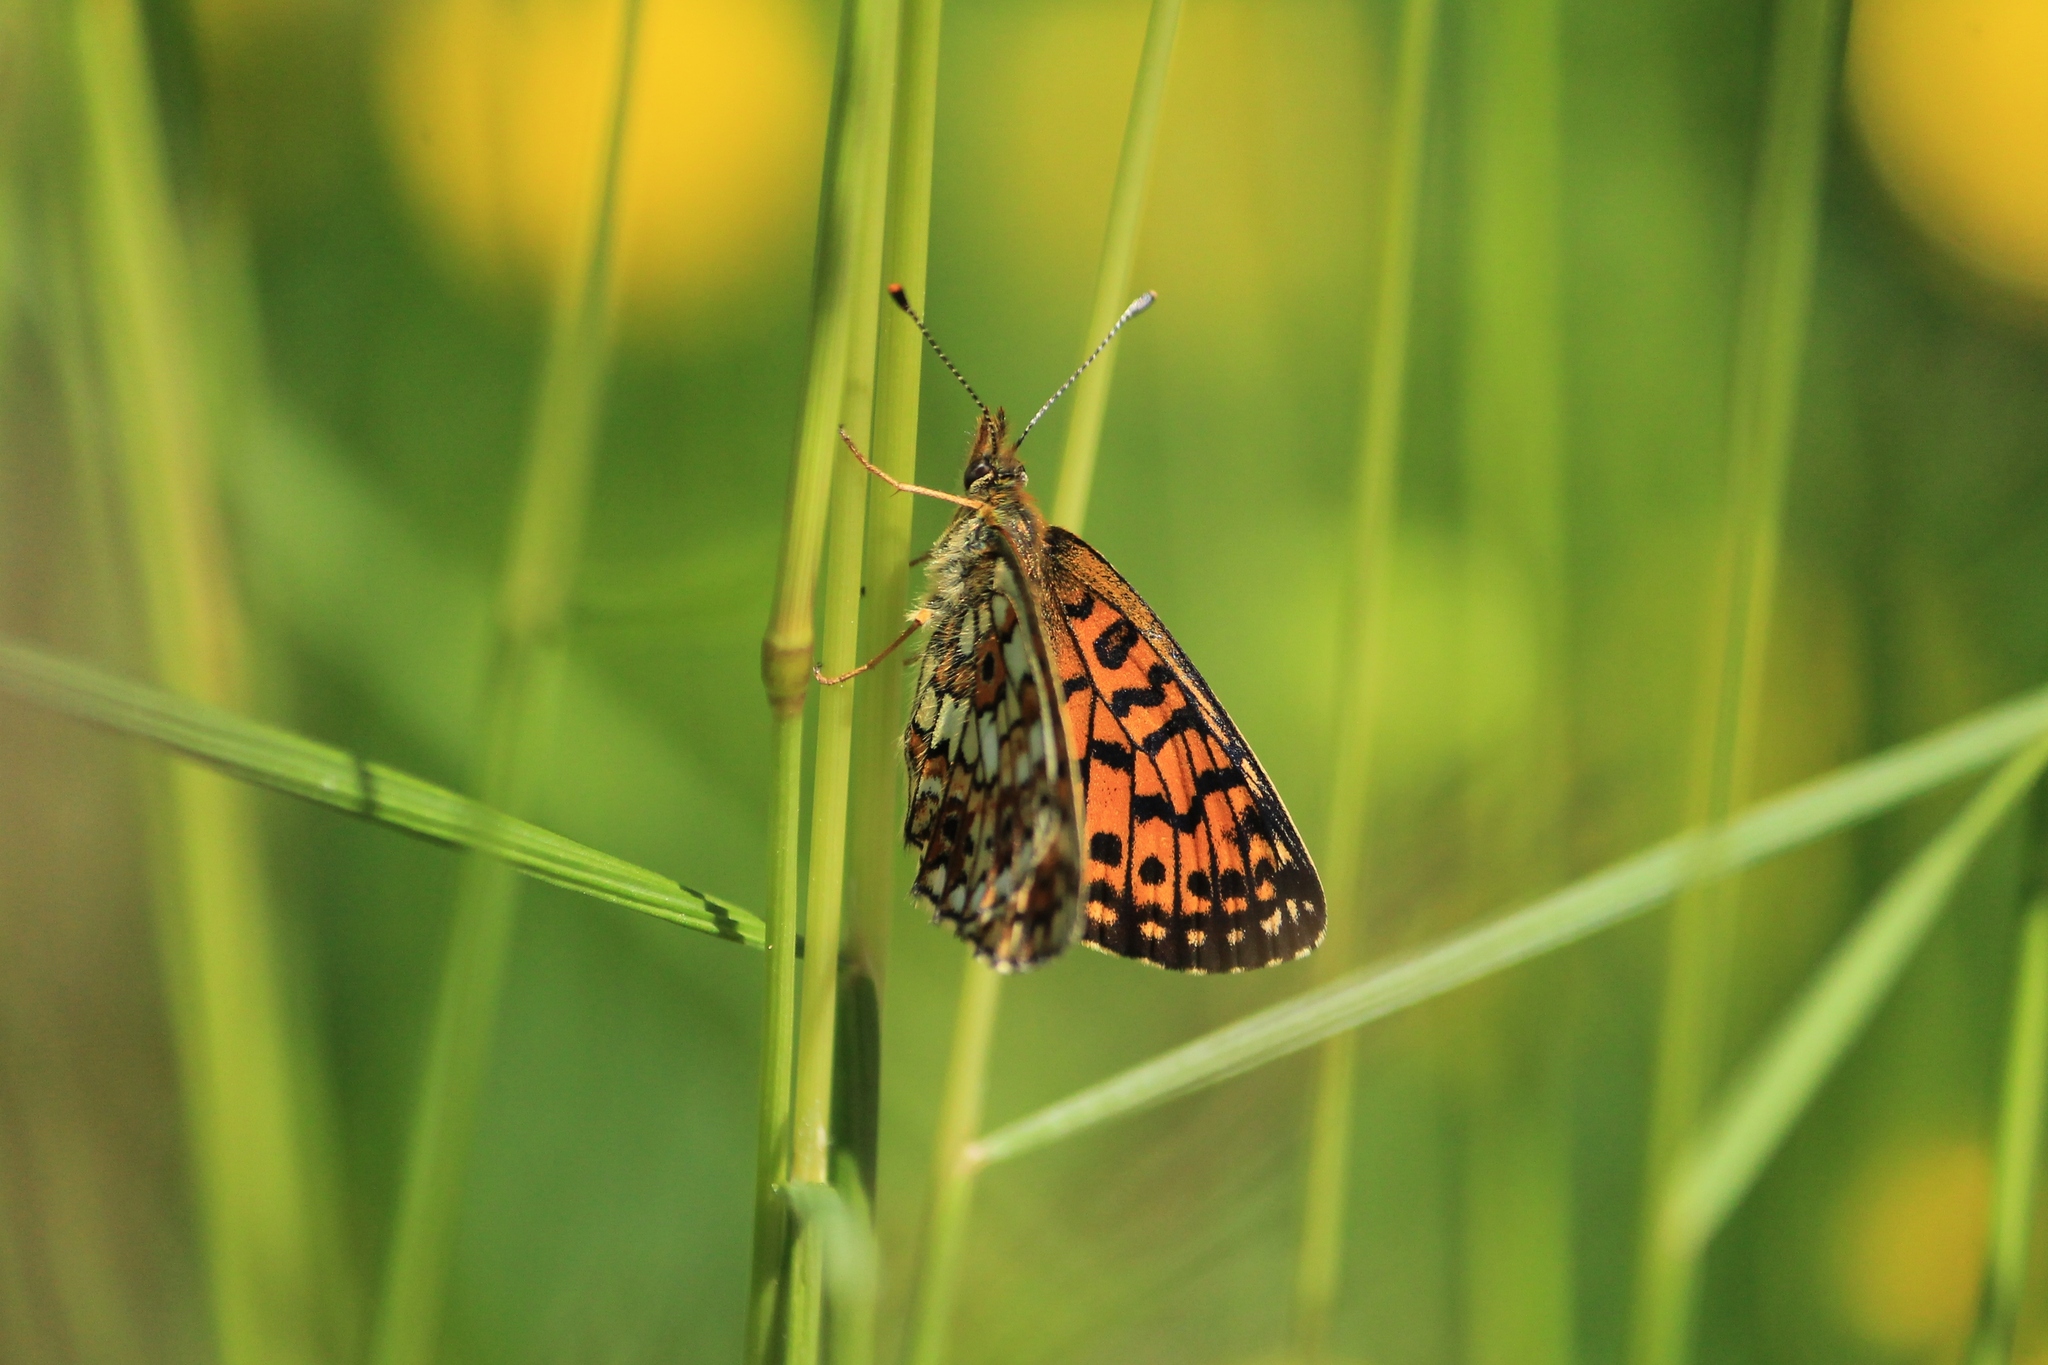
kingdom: Animalia
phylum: Arthropoda
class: Insecta
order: Lepidoptera
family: Nymphalidae
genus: Boloria
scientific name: Boloria selene
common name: Small pearl-bordered fritillary
